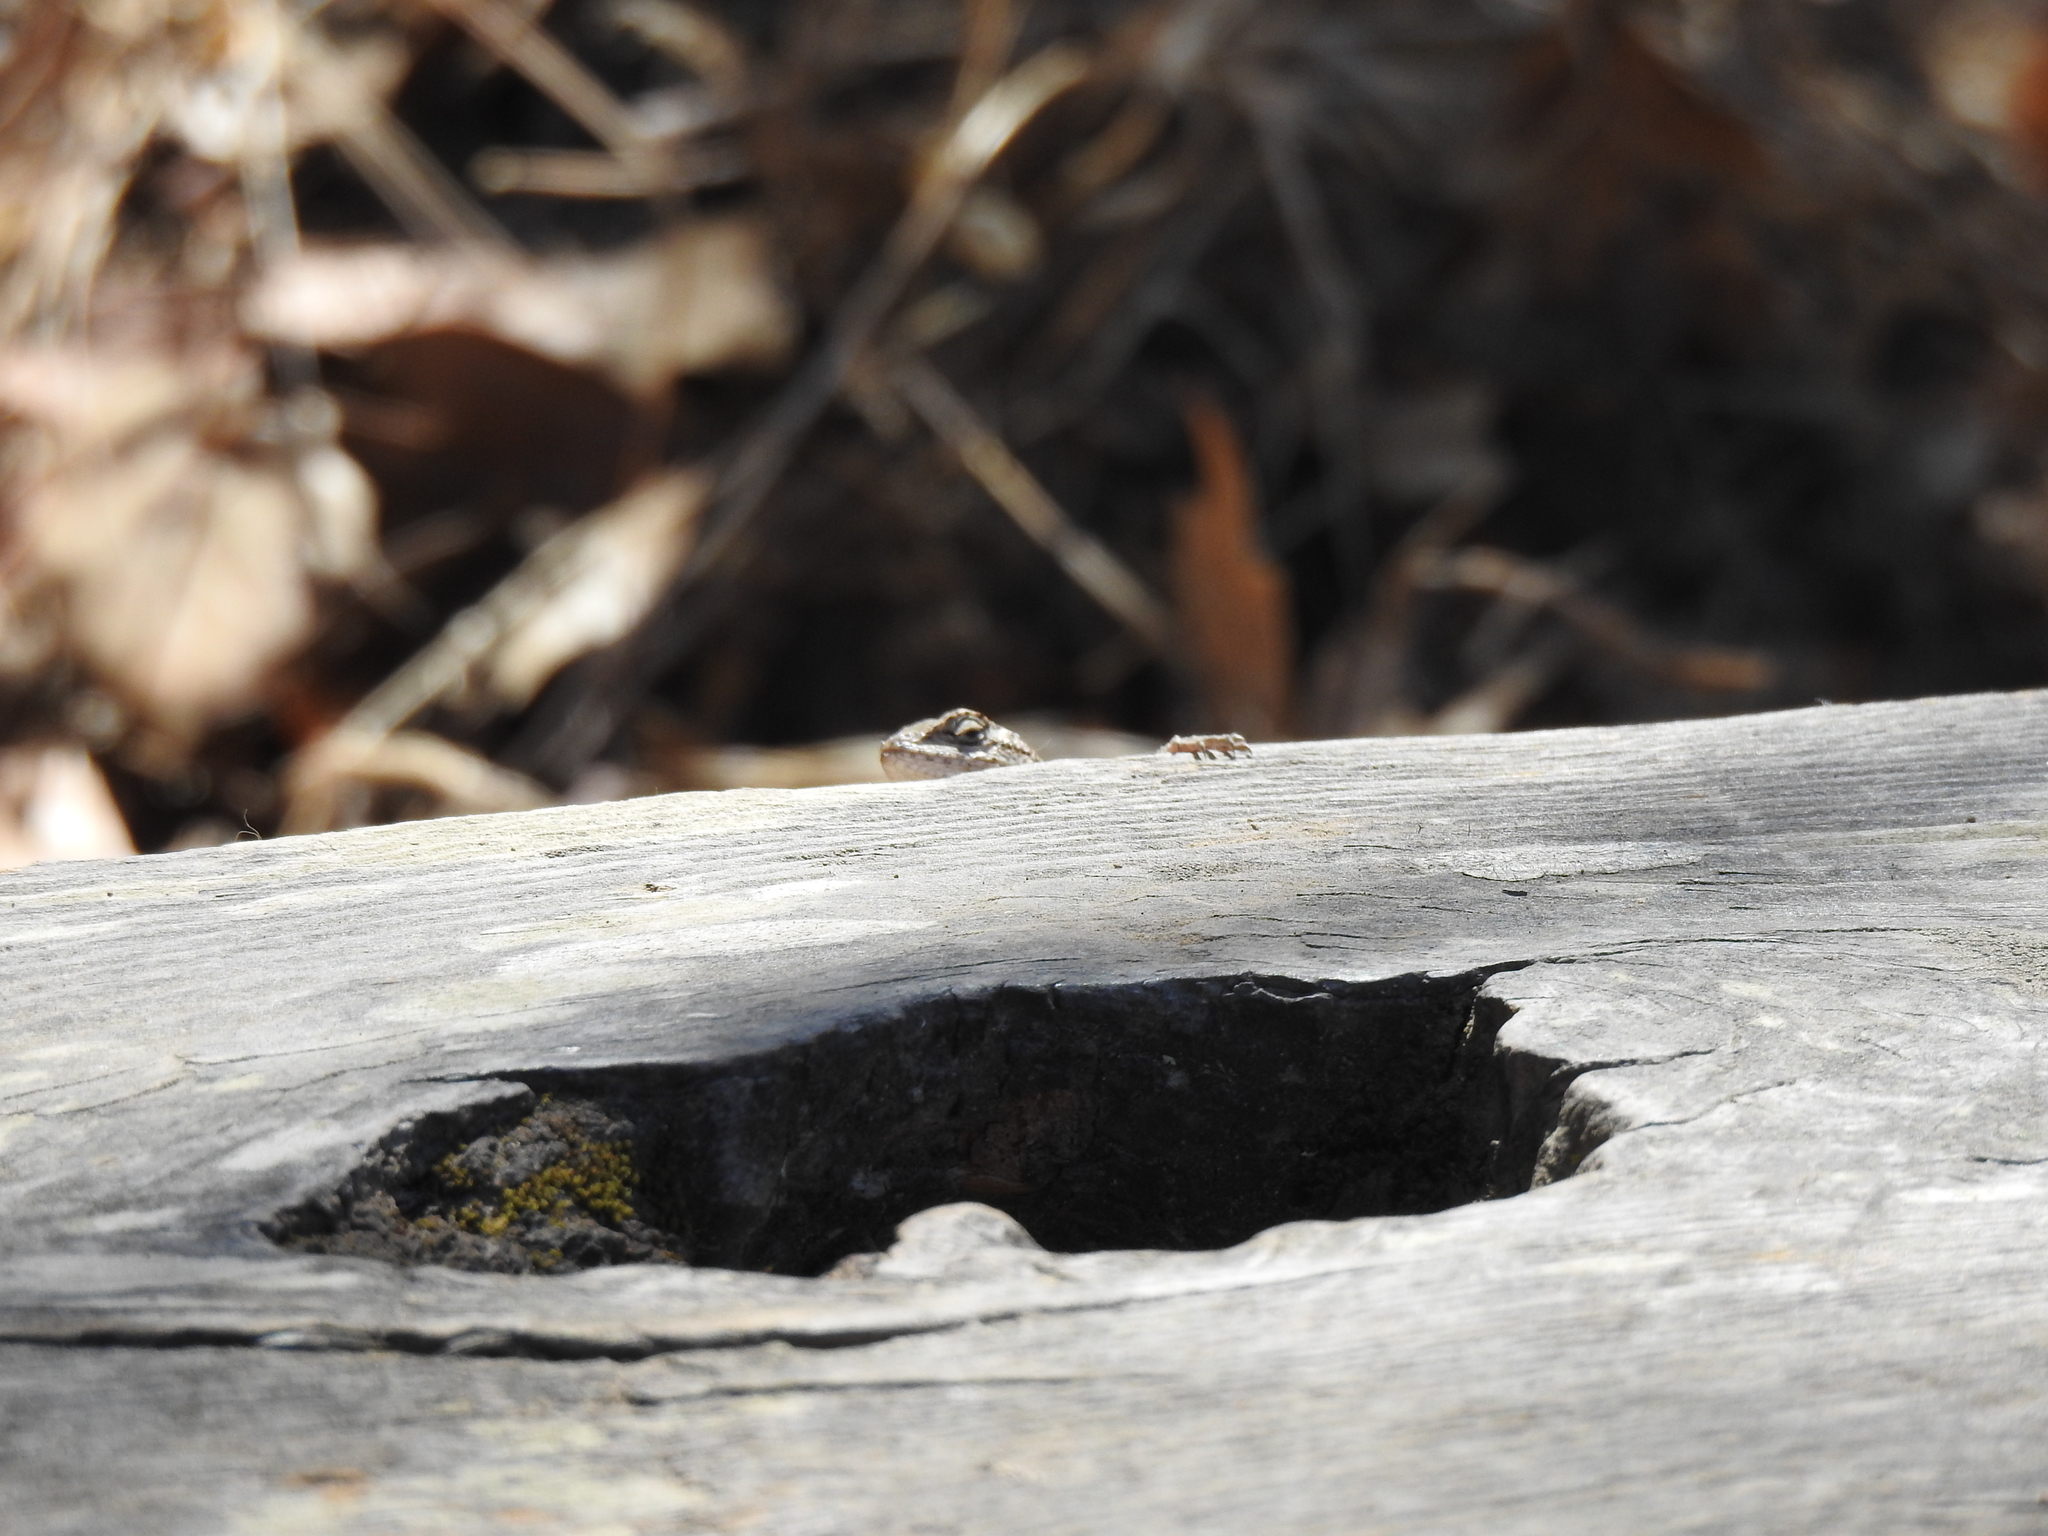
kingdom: Animalia
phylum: Chordata
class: Squamata
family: Phrynosomatidae
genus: Sceloporus
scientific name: Sceloporus occidentalis
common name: Western fence lizard
